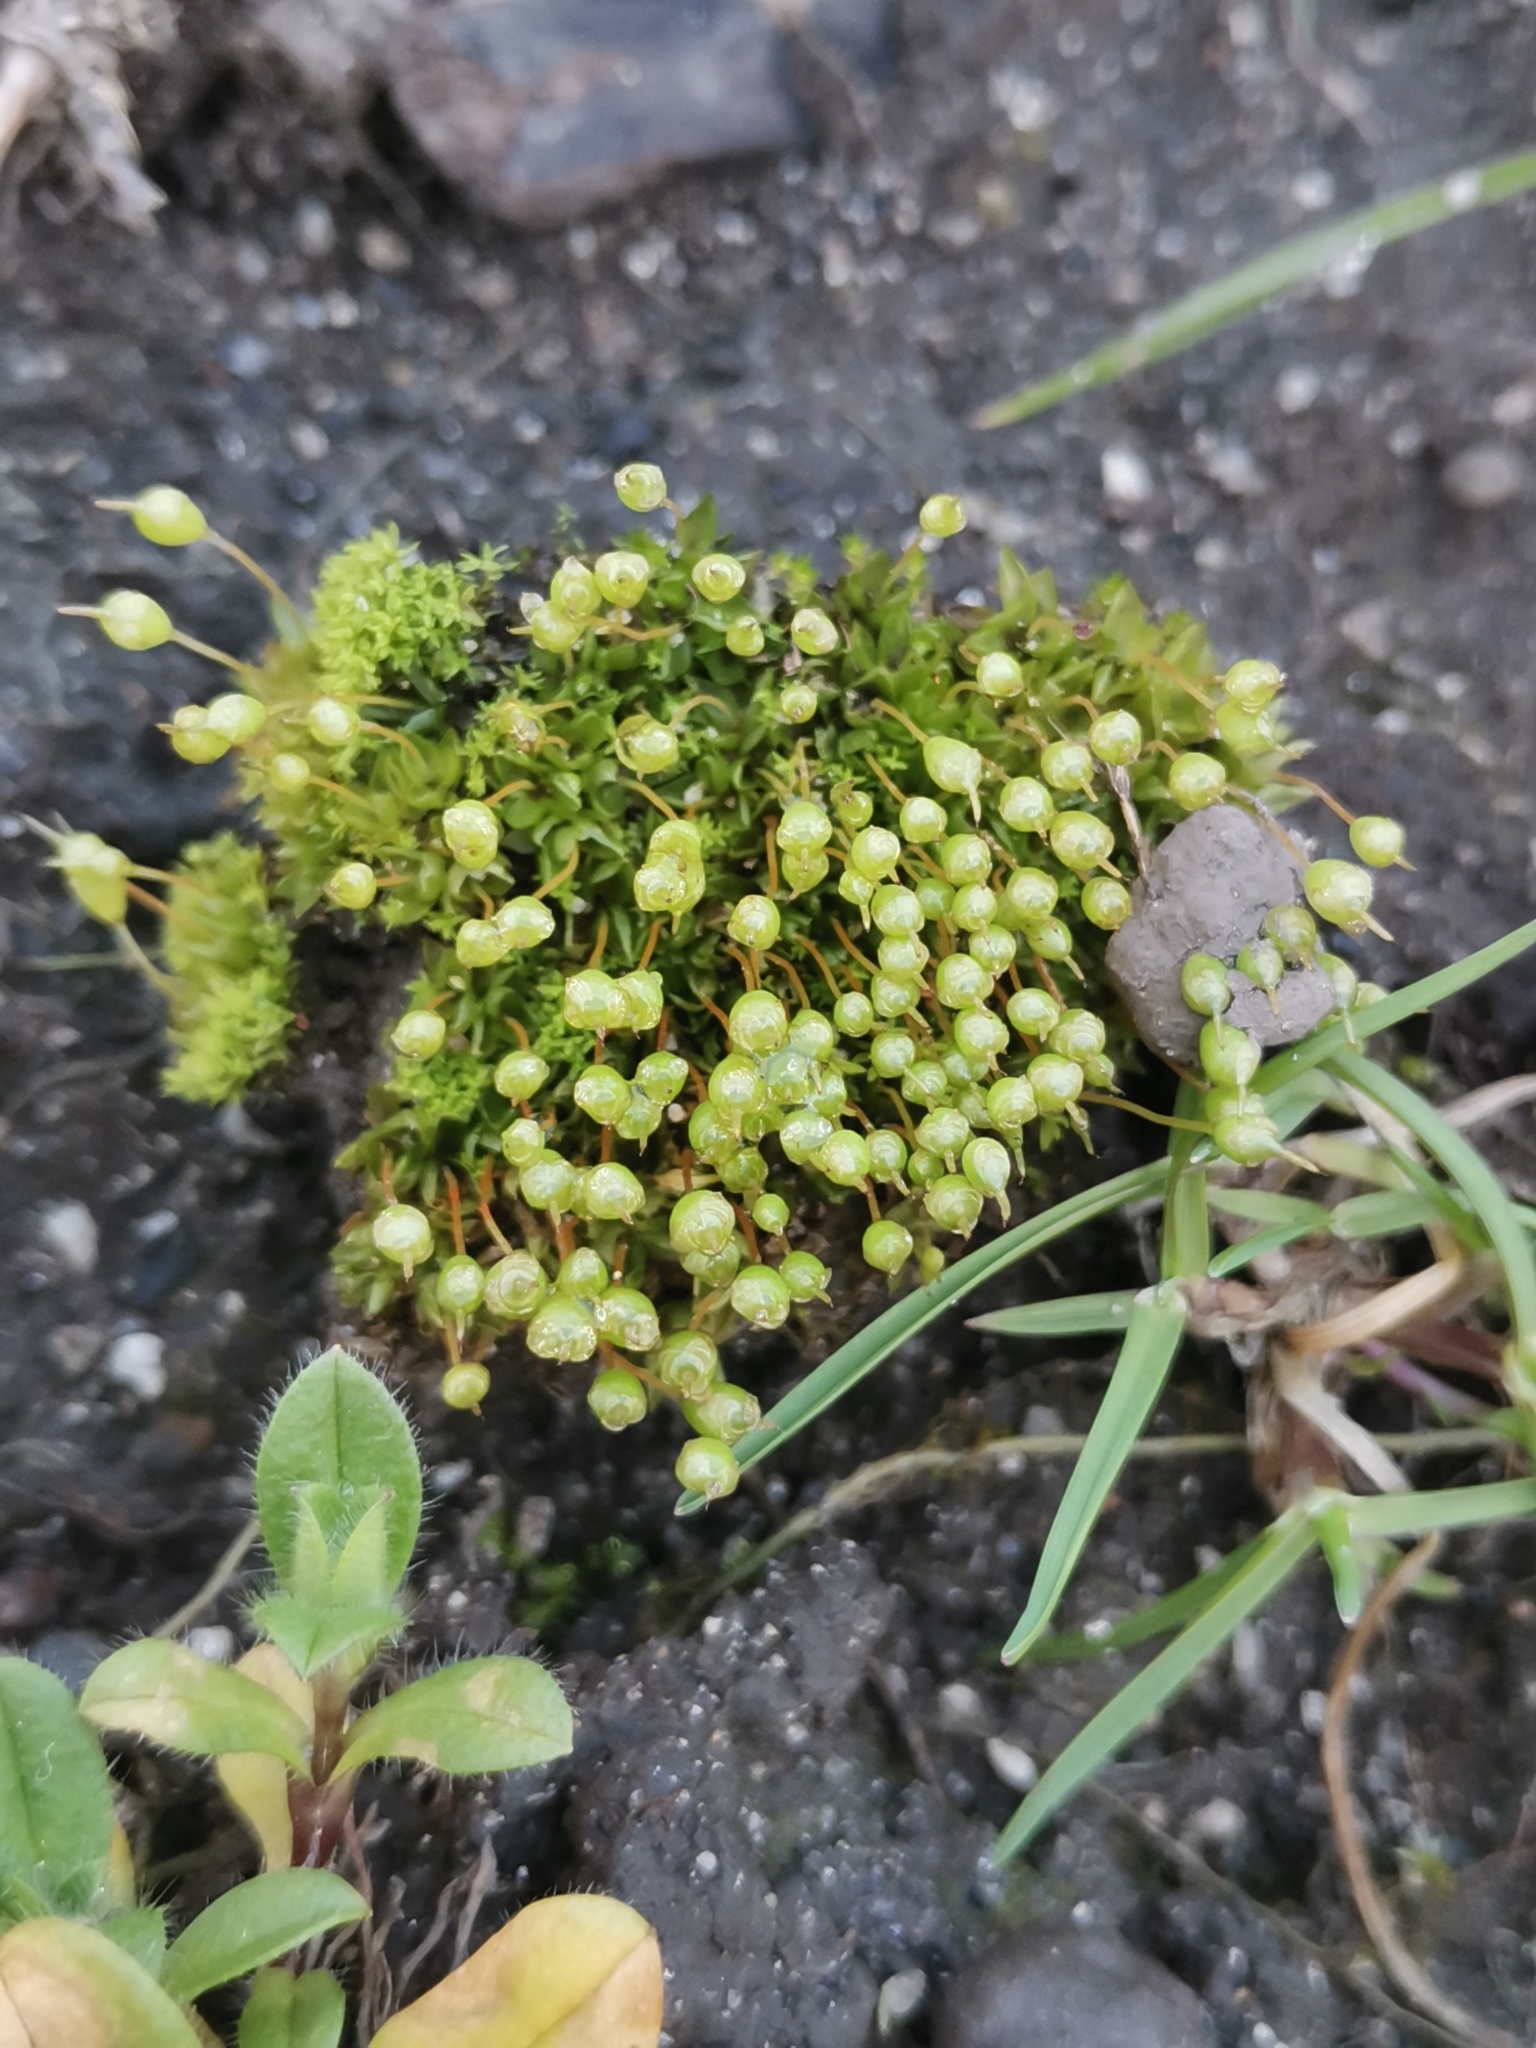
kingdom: Plantae
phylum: Bryophyta
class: Bryopsida
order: Funariales
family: Funariaceae
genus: Physcomitrium
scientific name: Physcomitrium pyriforme
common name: Common bladder-moss
